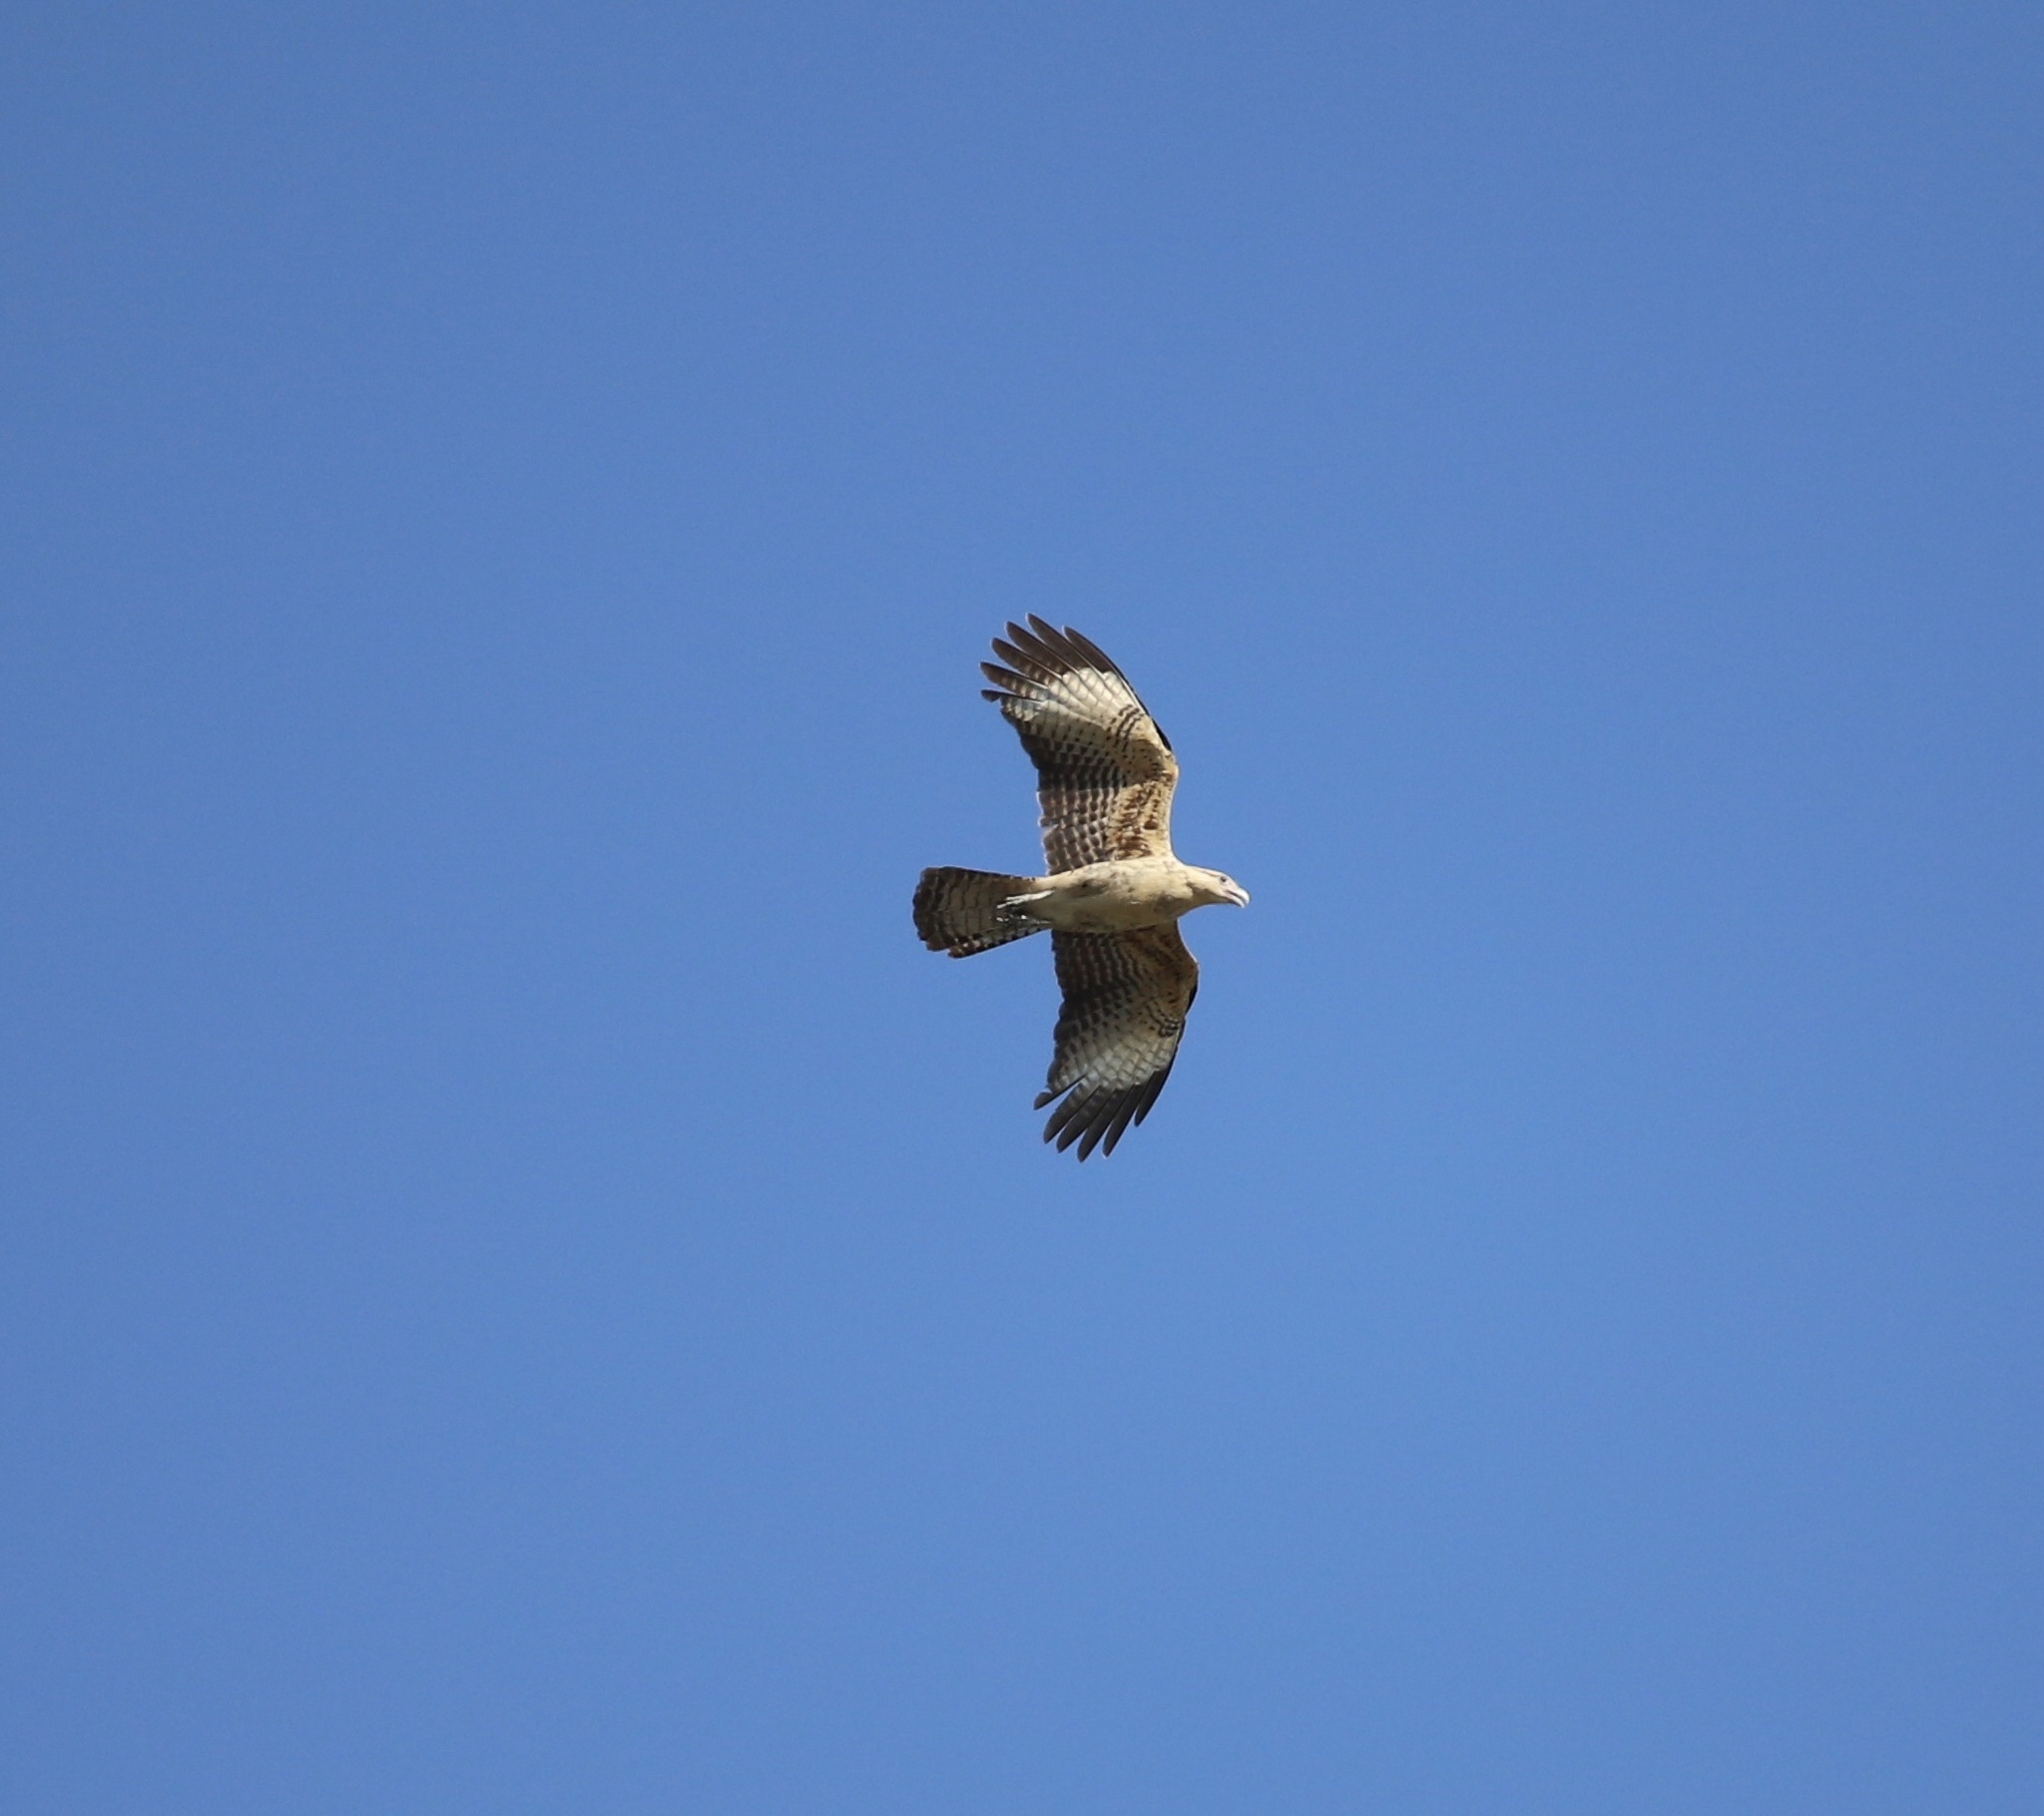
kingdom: Animalia
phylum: Chordata
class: Aves
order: Falconiformes
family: Falconidae
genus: Daptrius
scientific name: Daptrius
